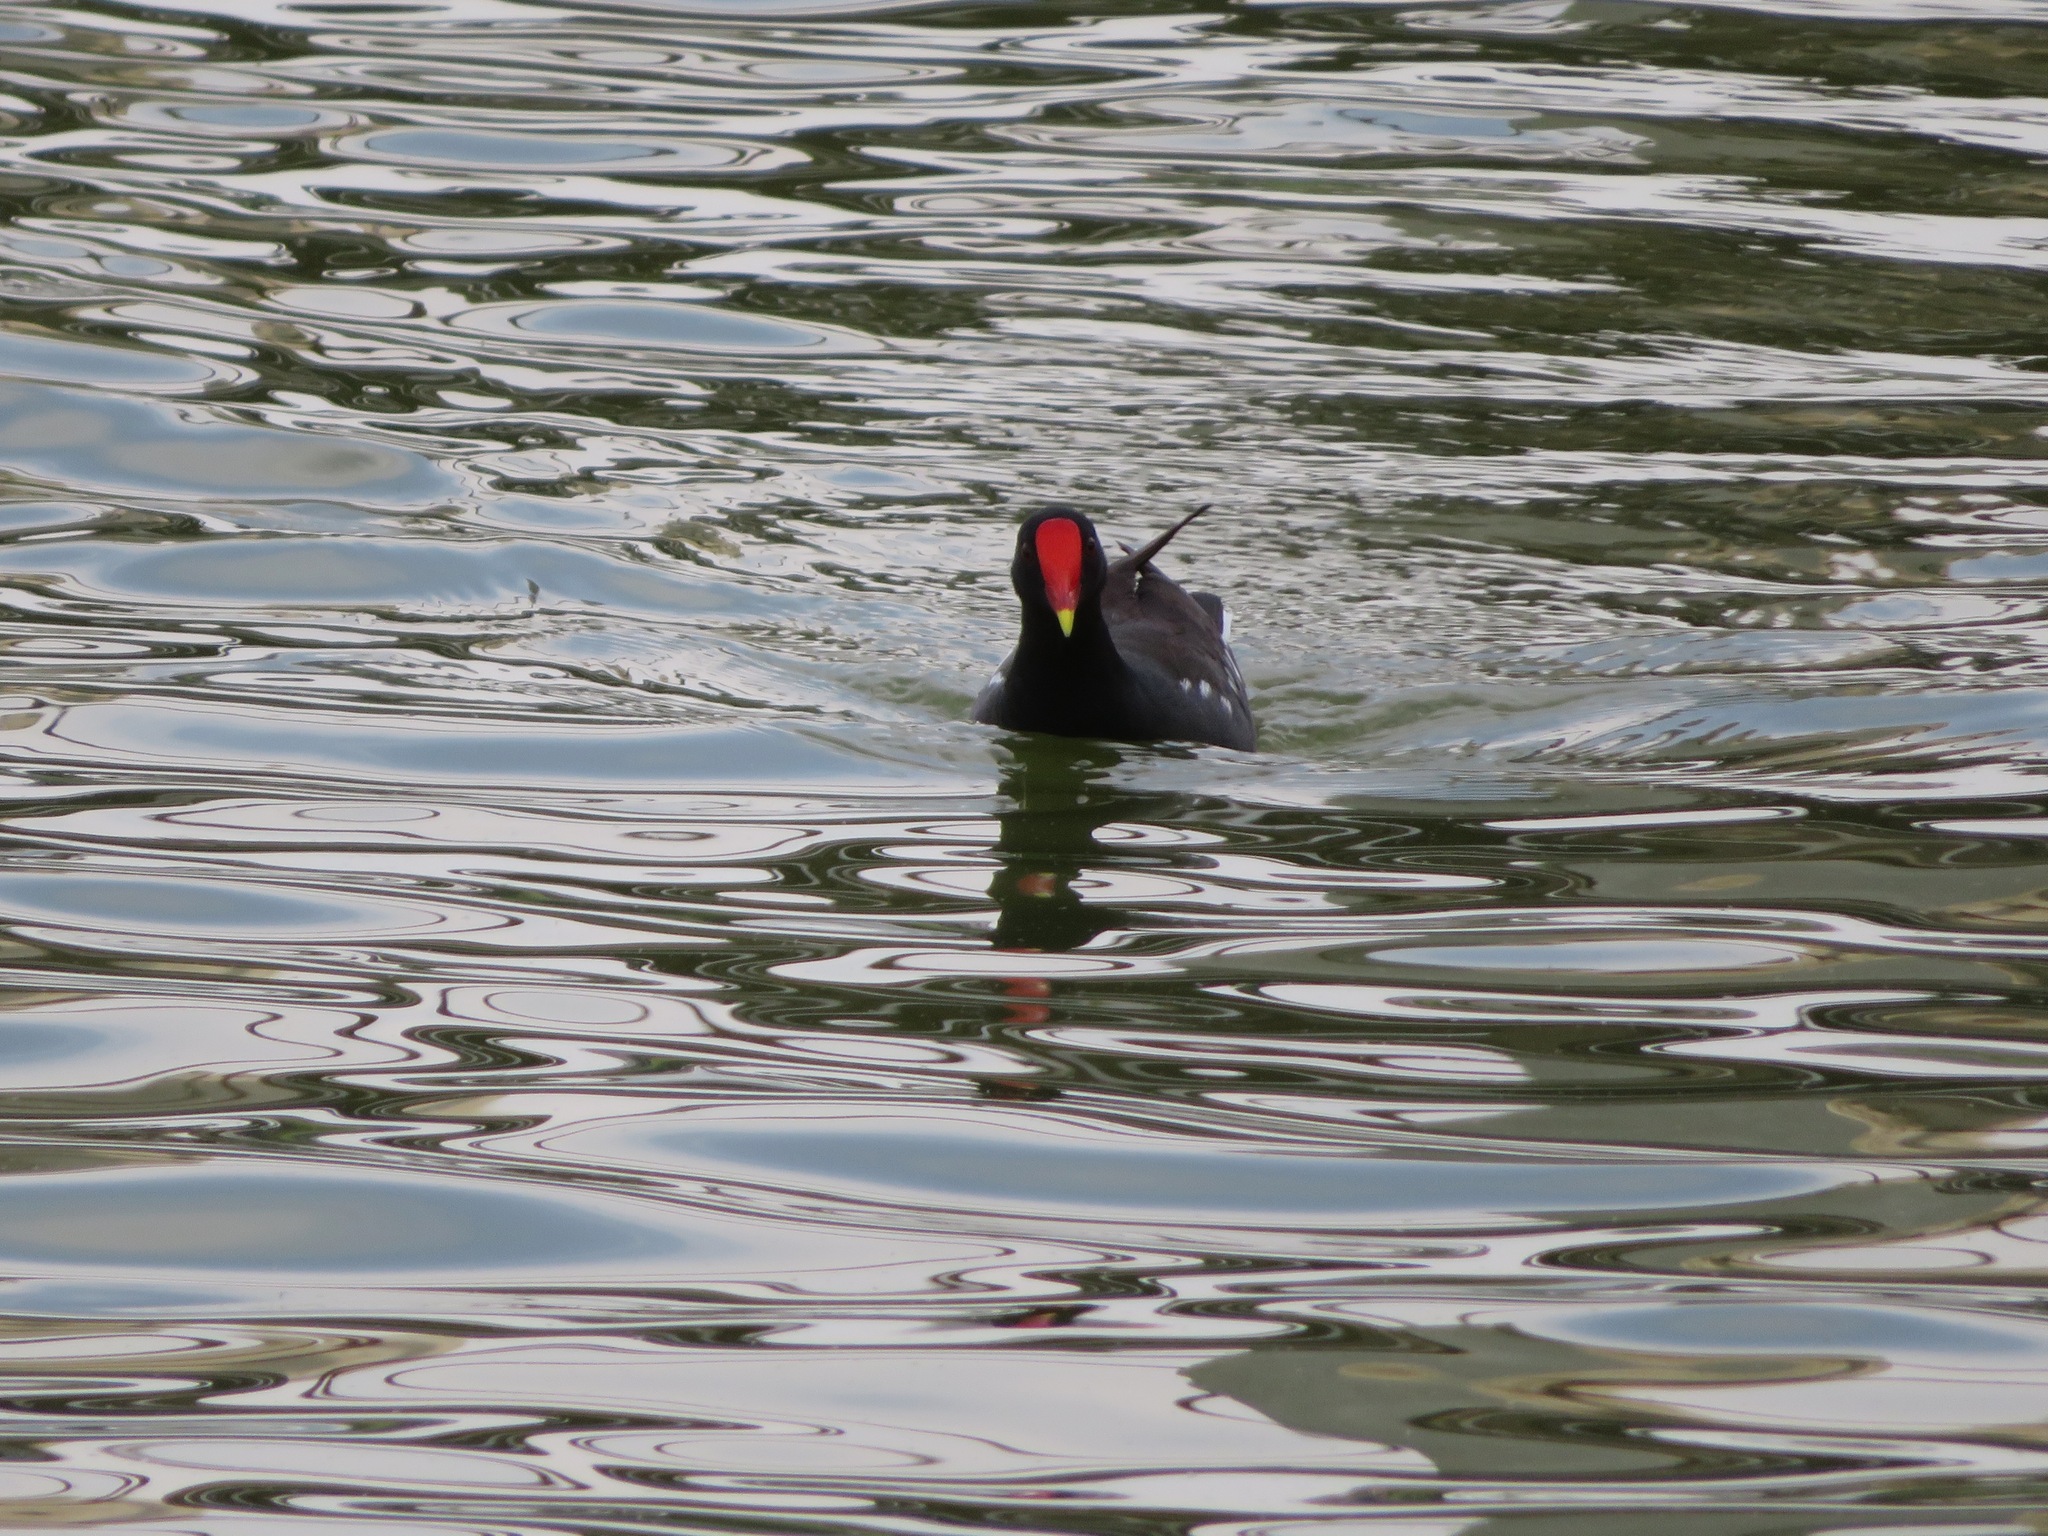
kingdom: Animalia
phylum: Chordata
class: Aves
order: Gruiformes
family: Rallidae
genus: Gallinula
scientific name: Gallinula chloropus
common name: Common moorhen
